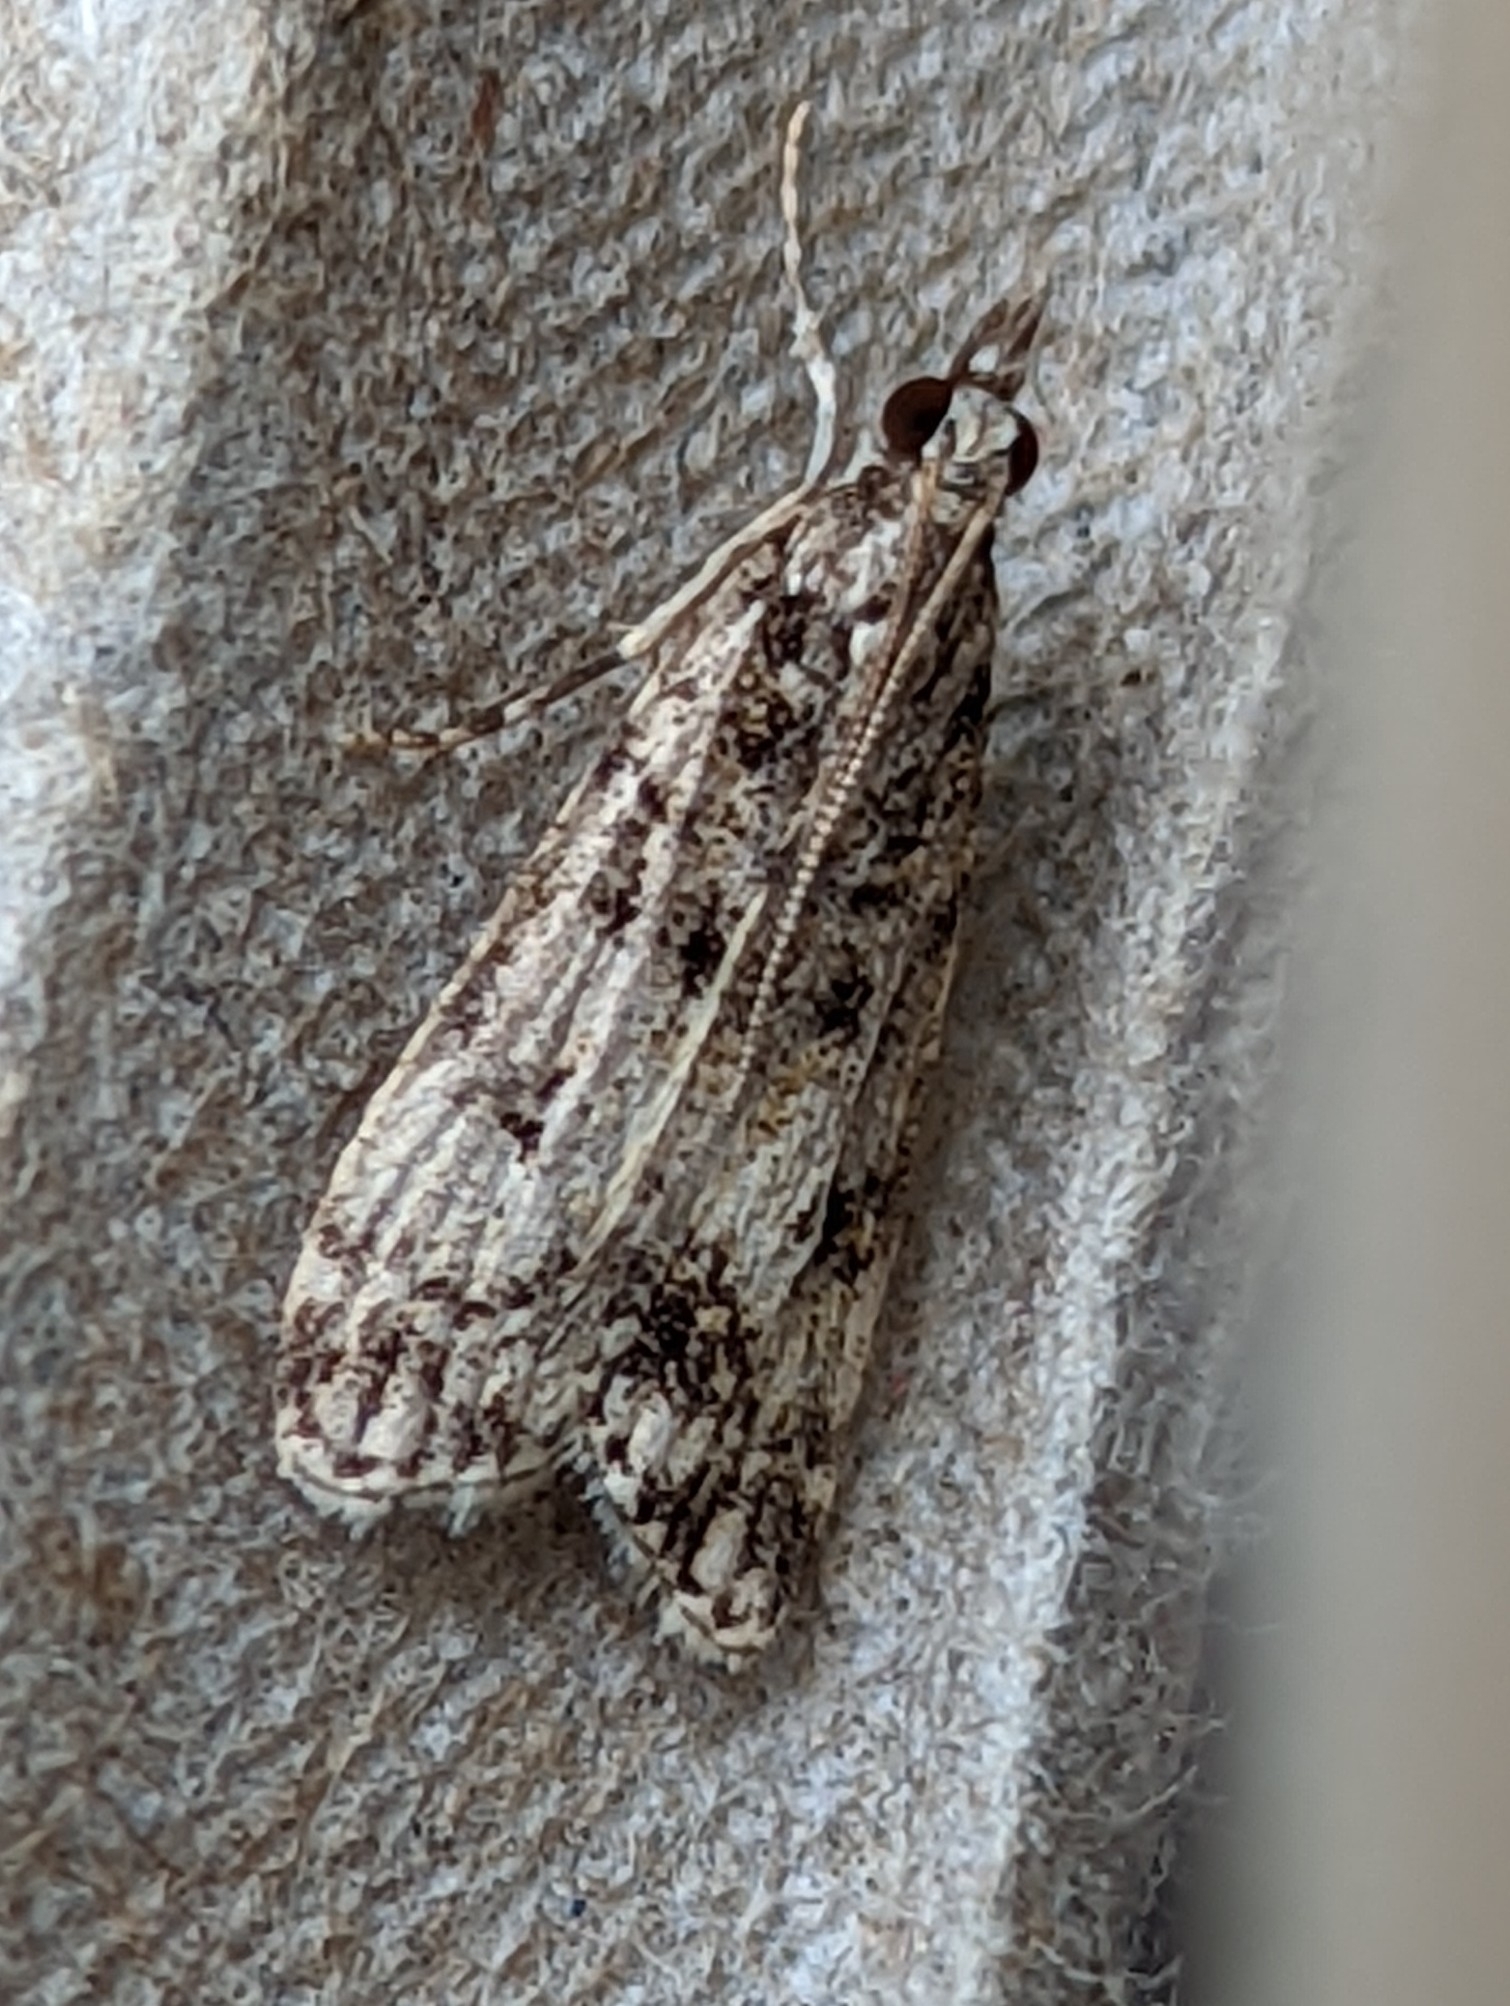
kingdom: Animalia
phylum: Arthropoda
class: Insecta
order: Lepidoptera
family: Crambidae
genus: Eudonia
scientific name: Eudonia lacustrata
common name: Little grey
